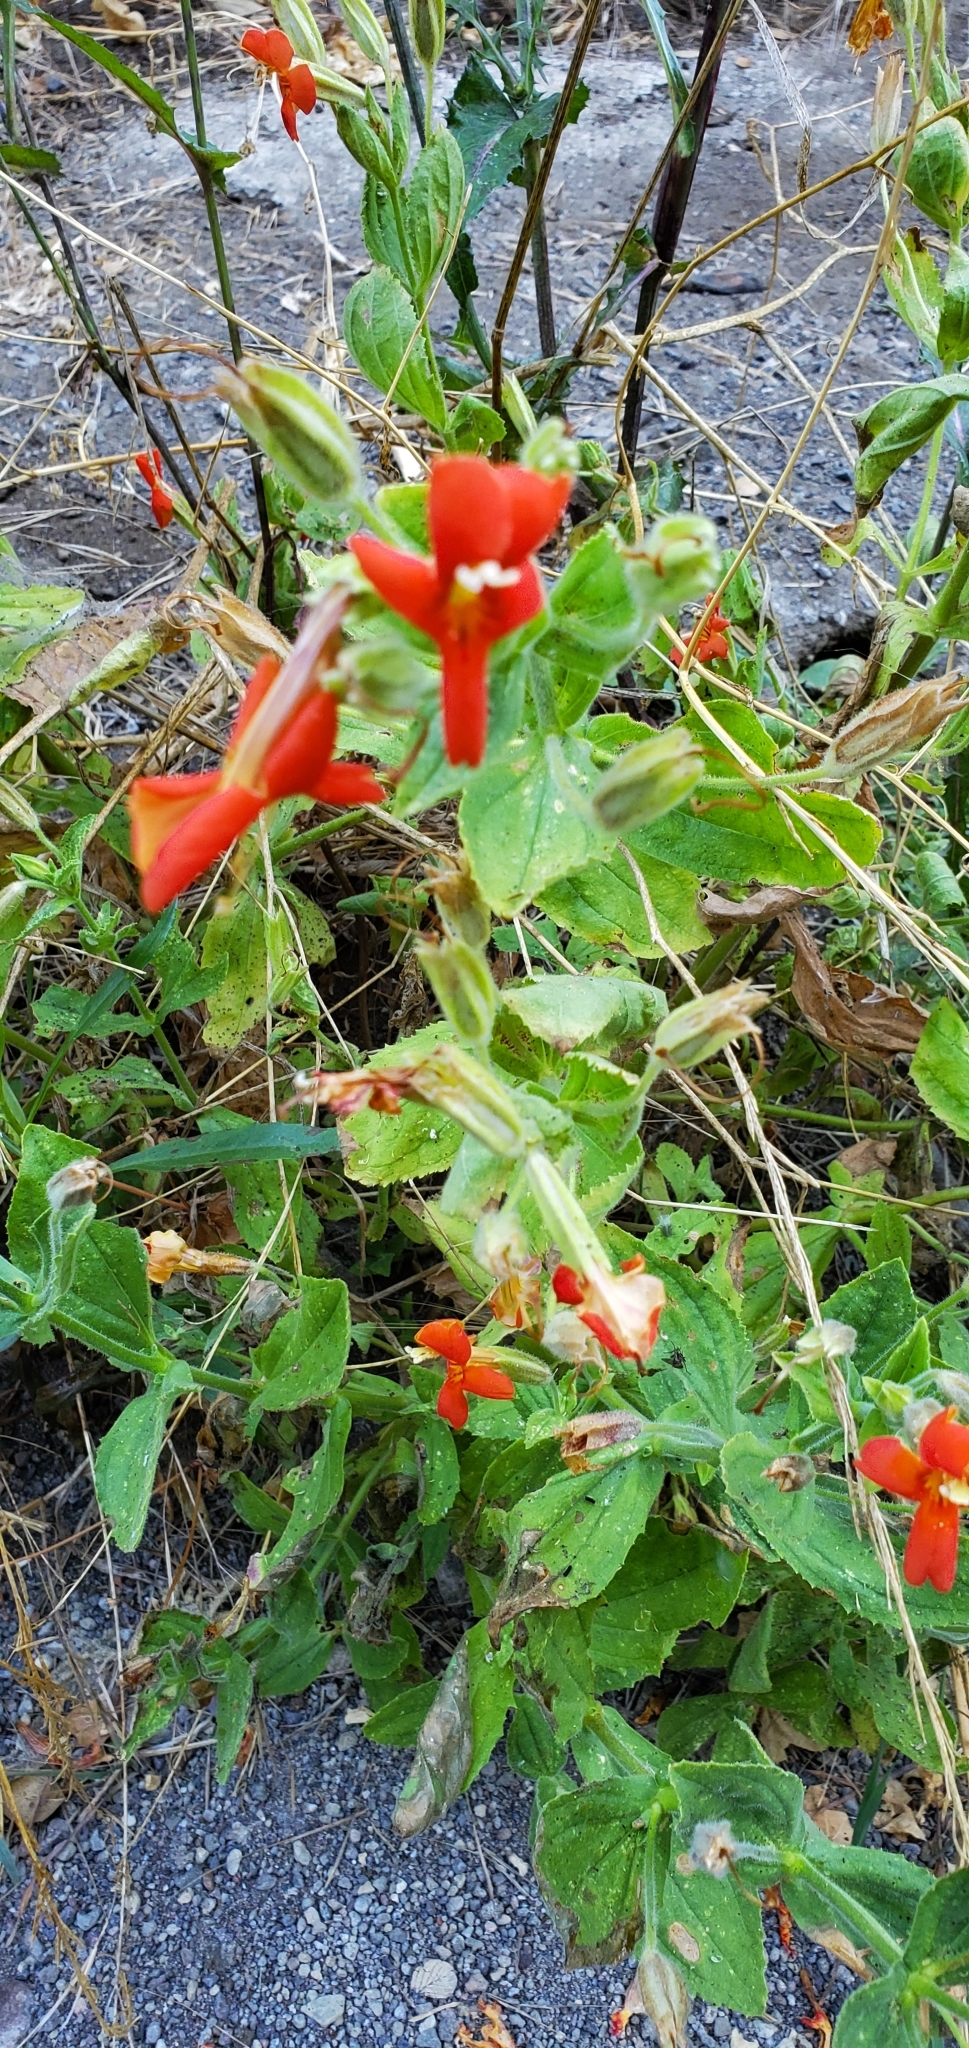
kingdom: Plantae
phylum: Tracheophyta
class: Magnoliopsida
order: Lamiales
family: Phrymaceae
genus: Erythranthe
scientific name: Erythranthe cardinalis
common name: Scarlet monkey-flower
